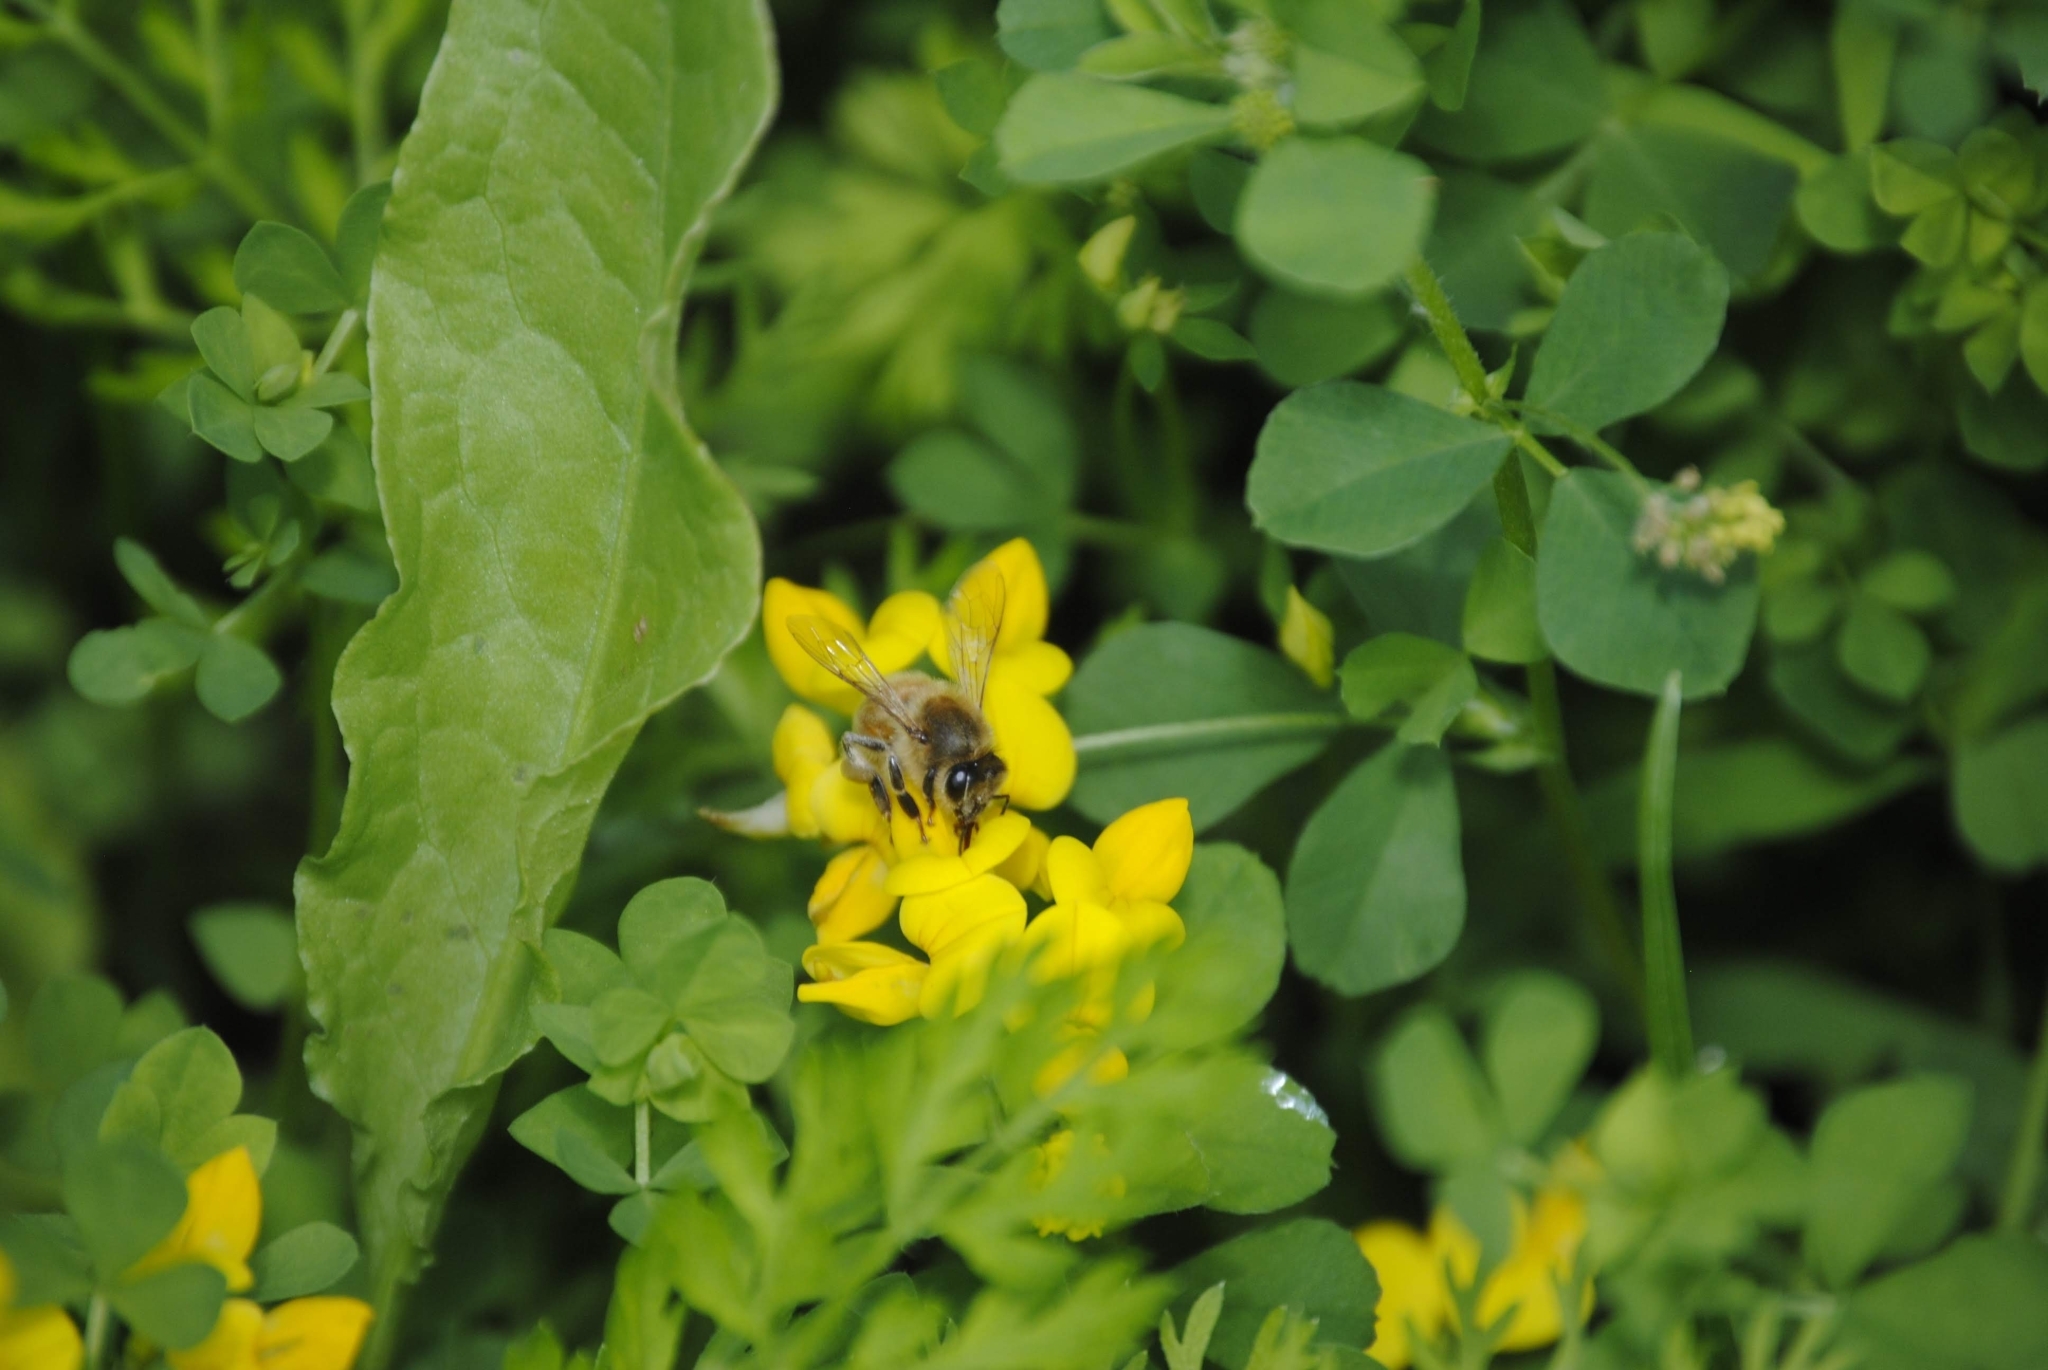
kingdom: Animalia
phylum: Arthropoda
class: Insecta
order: Hymenoptera
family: Apidae
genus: Apis
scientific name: Apis mellifera
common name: Honey bee
